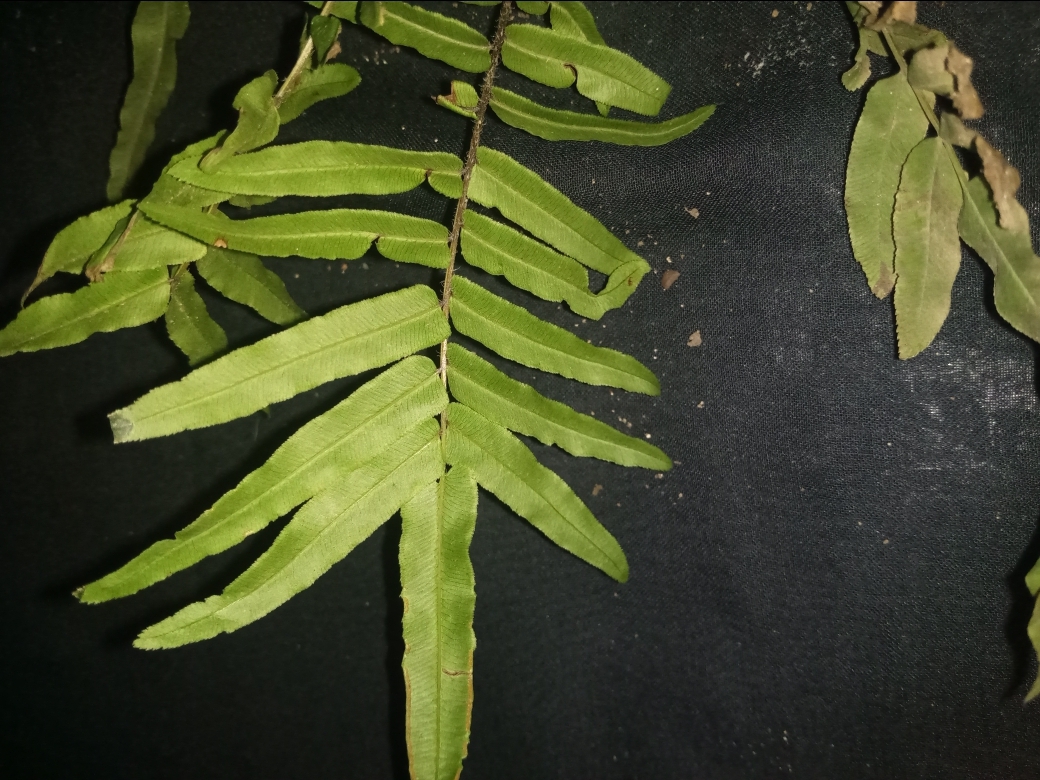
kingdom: Plantae
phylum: Tracheophyta
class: Polypodiopsida
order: Polypodiales
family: Pteridaceae
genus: Pteris
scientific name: Pteris vittata
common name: Ladder brake
